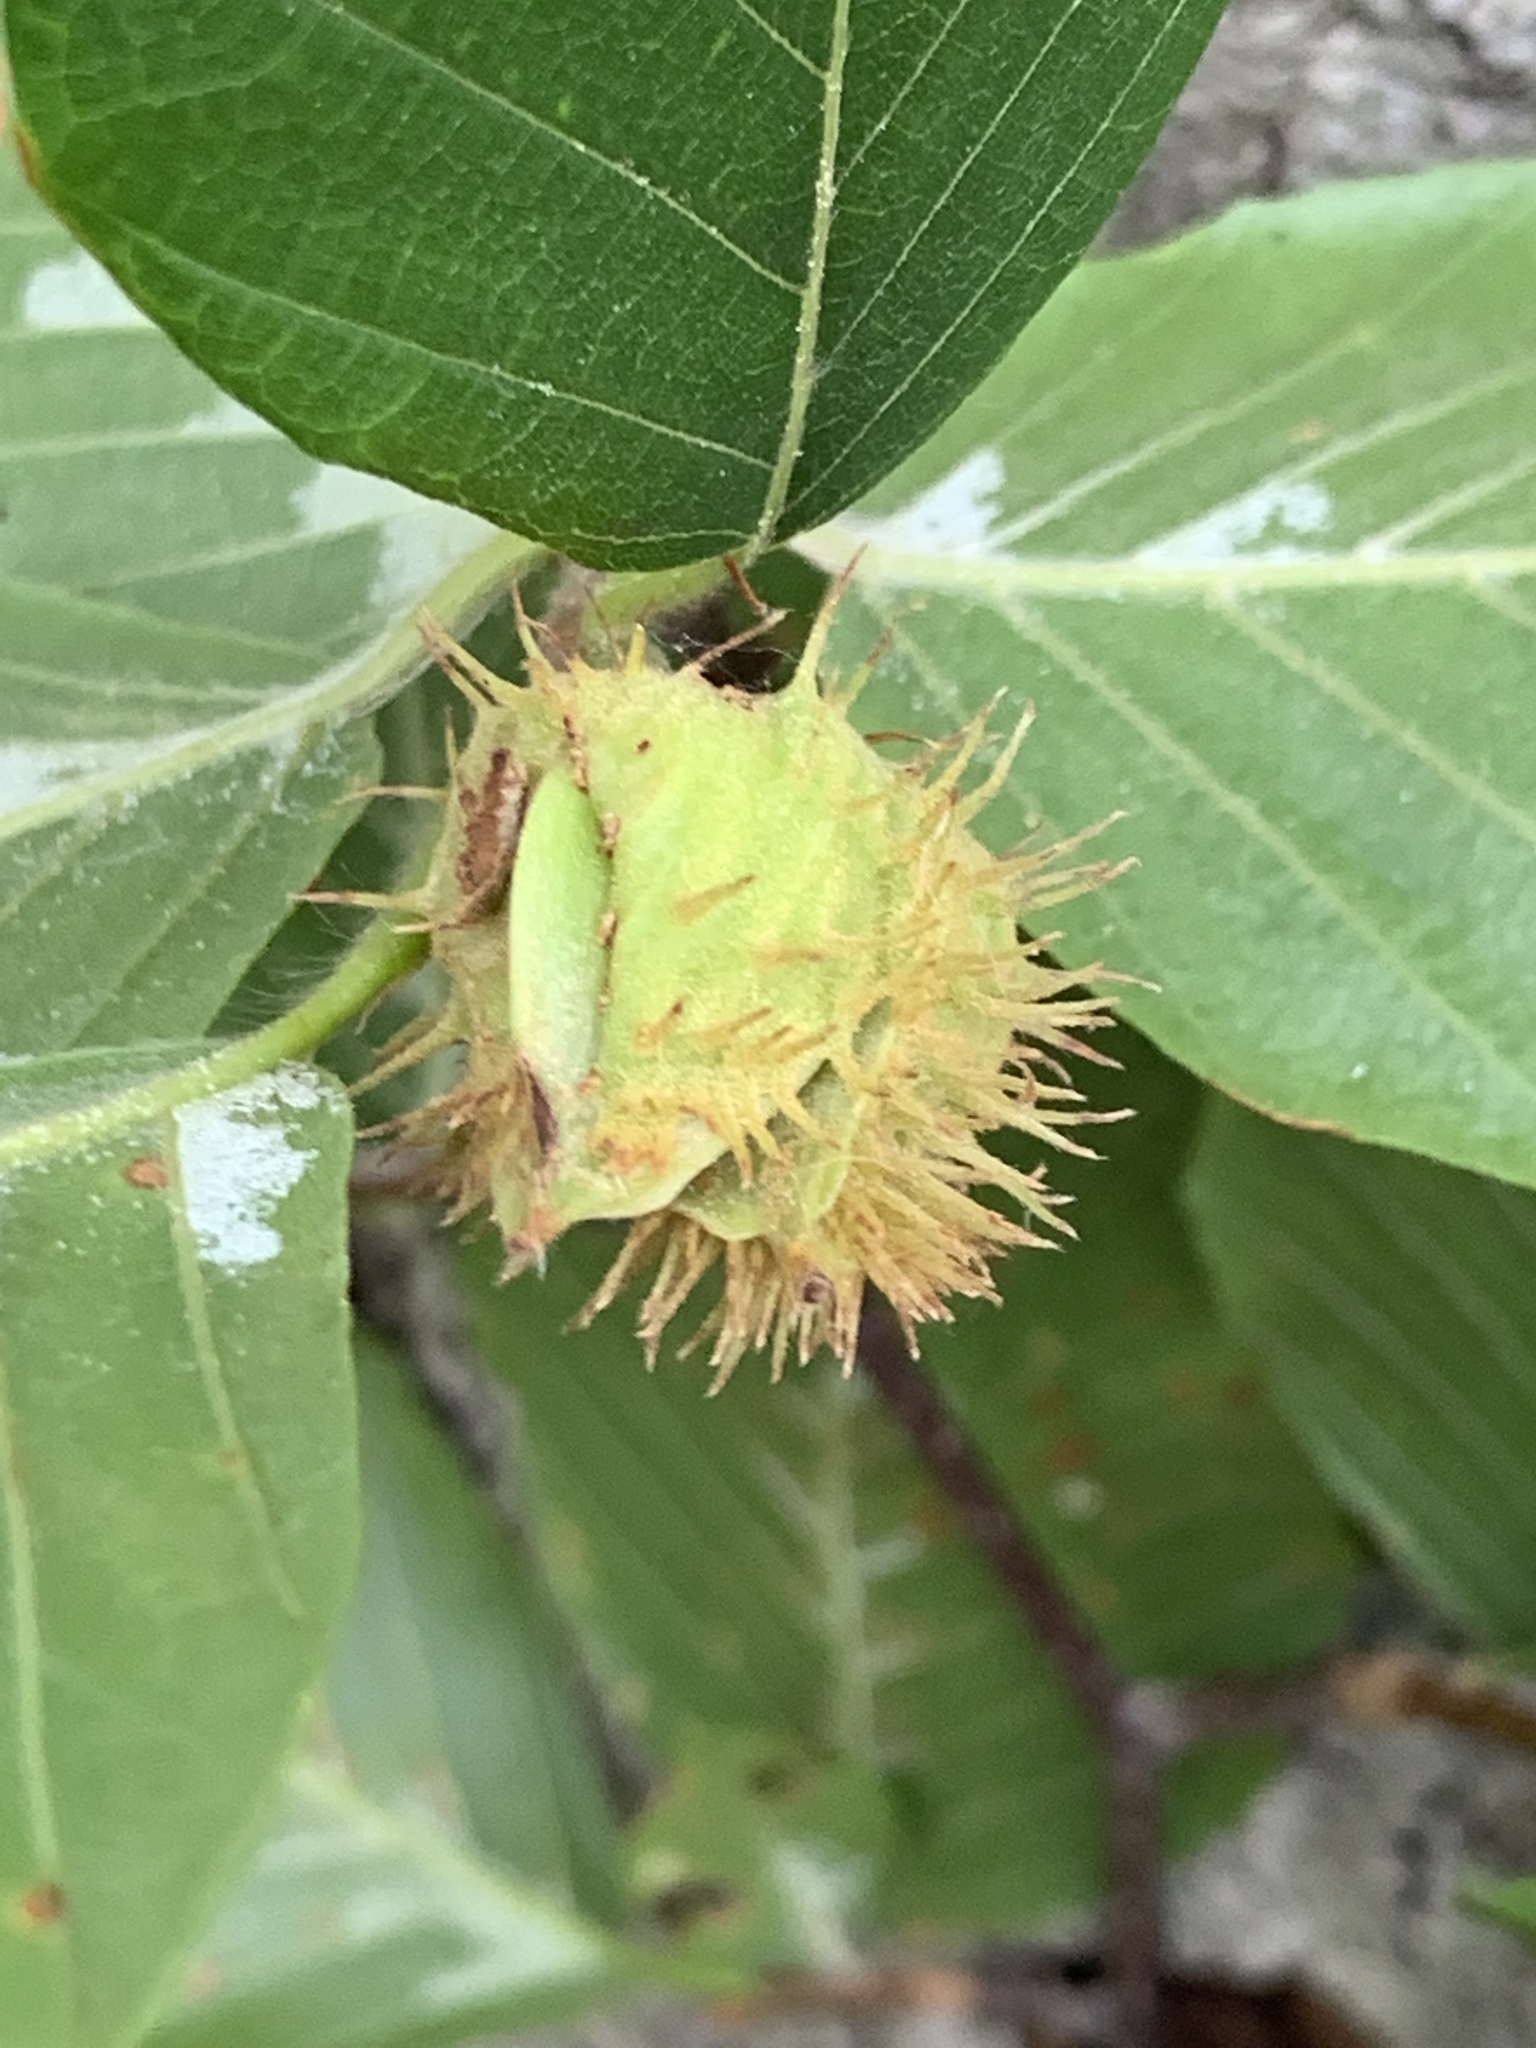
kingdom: Plantae
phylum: Tracheophyta
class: Magnoliopsida
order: Fagales
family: Fagaceae
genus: Fagus
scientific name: Fagus grandifolia
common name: American beech
